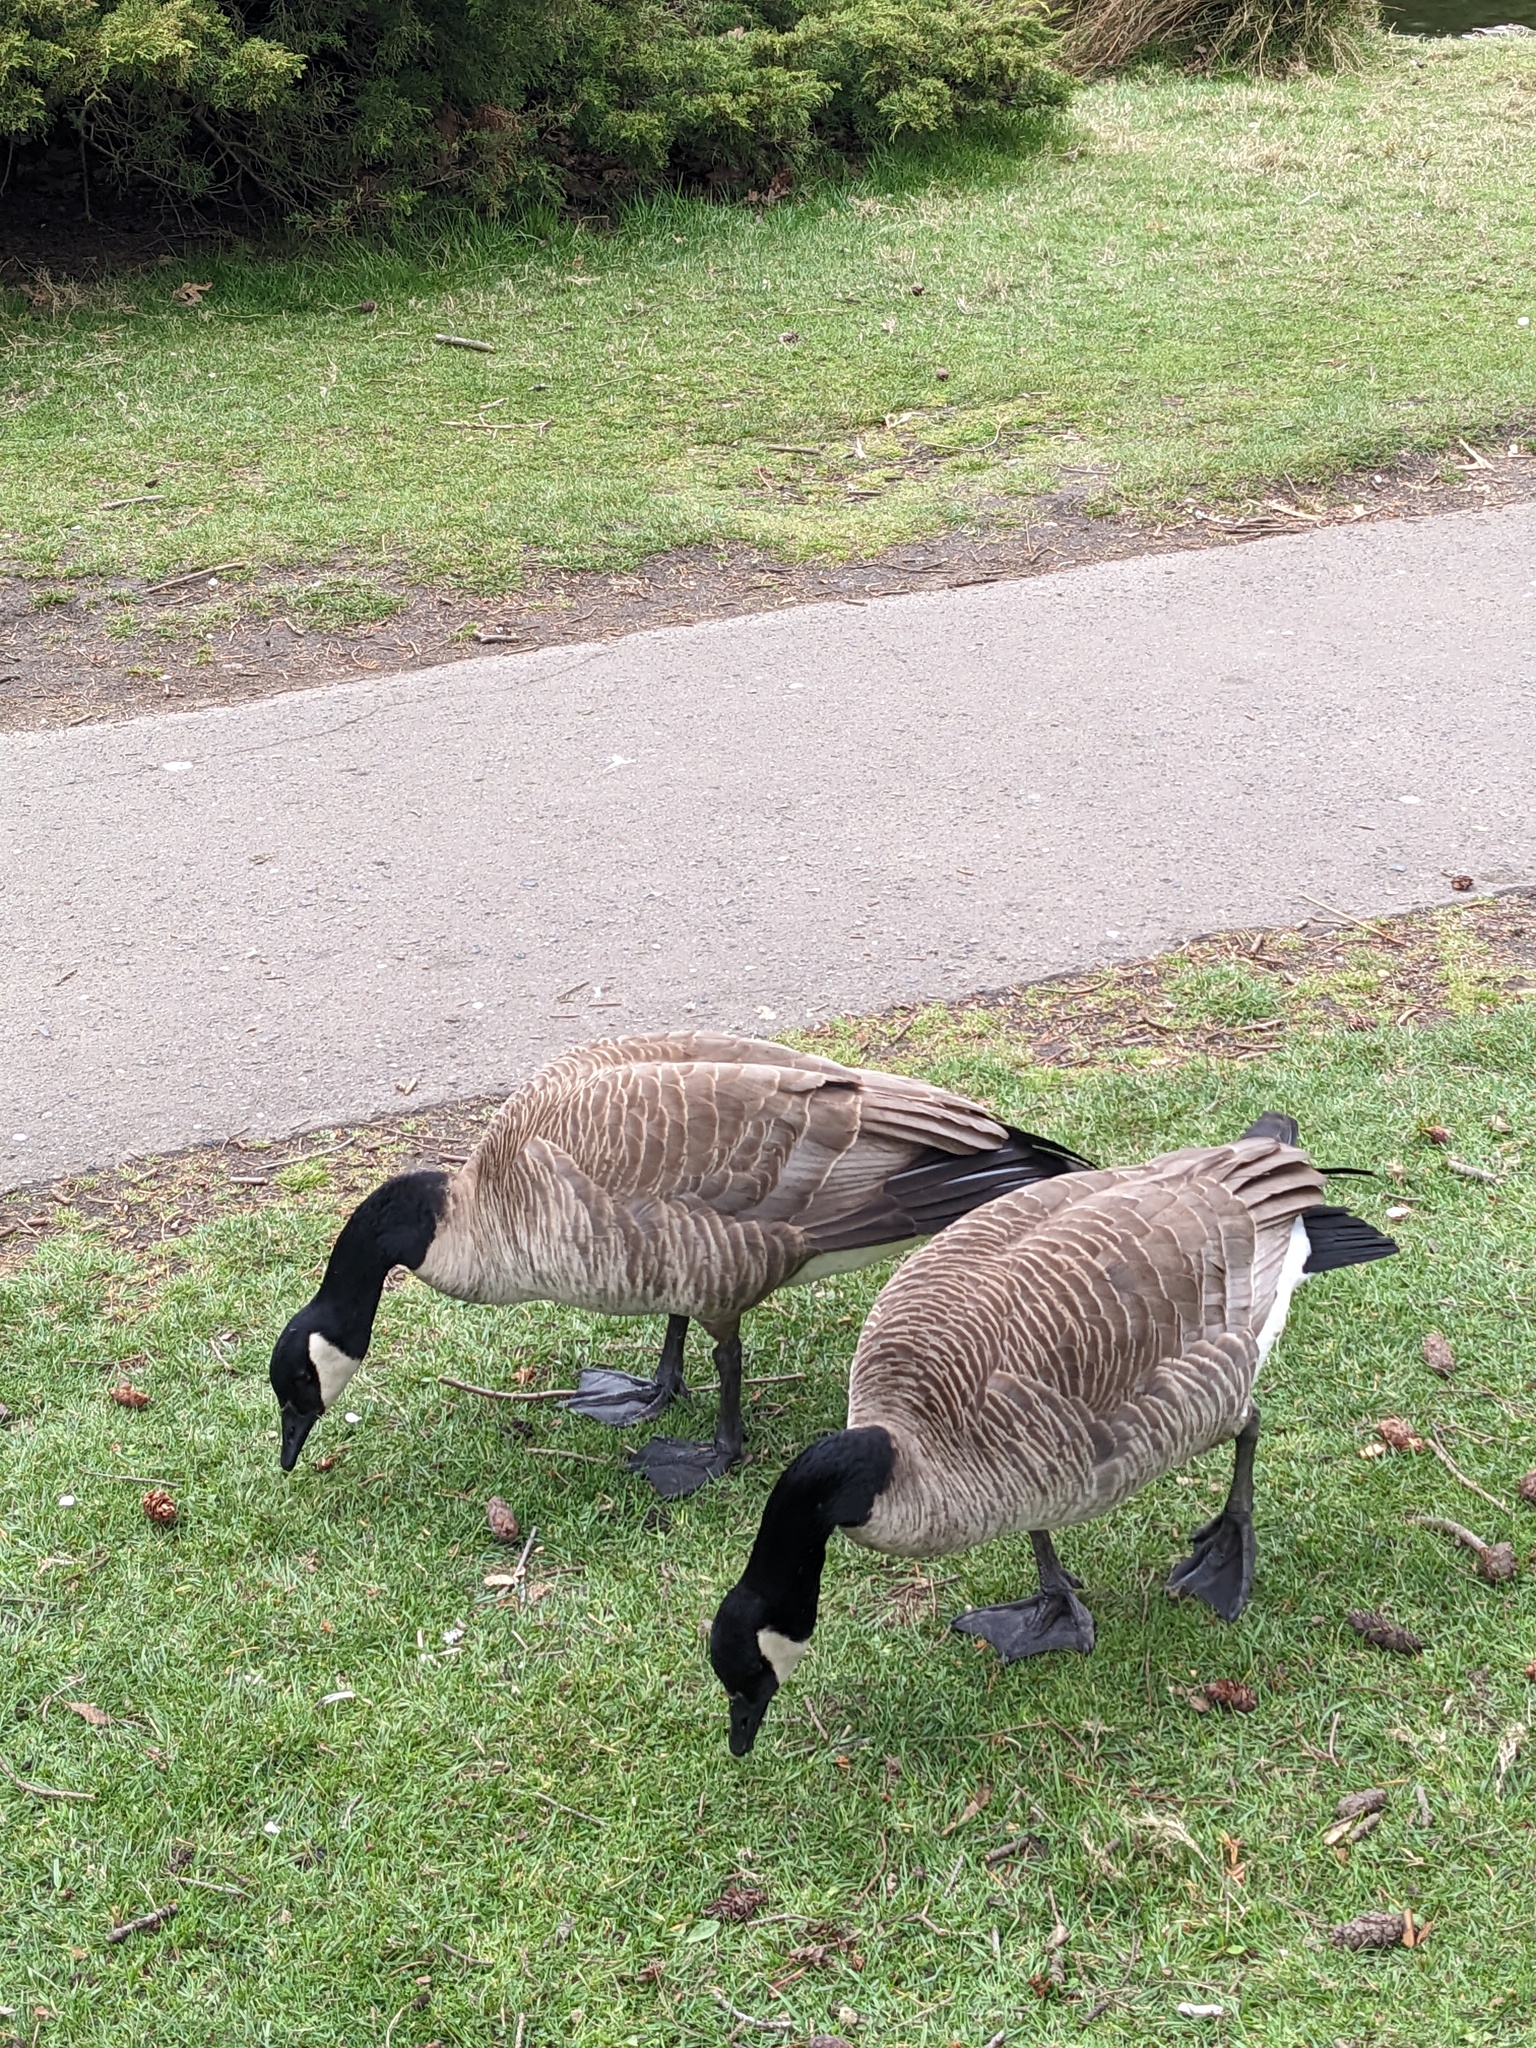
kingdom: Animalia
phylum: Chordata
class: Aves
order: Anseriformes
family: Anatidae
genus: Branta
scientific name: Branta canadensis
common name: Canada goose
